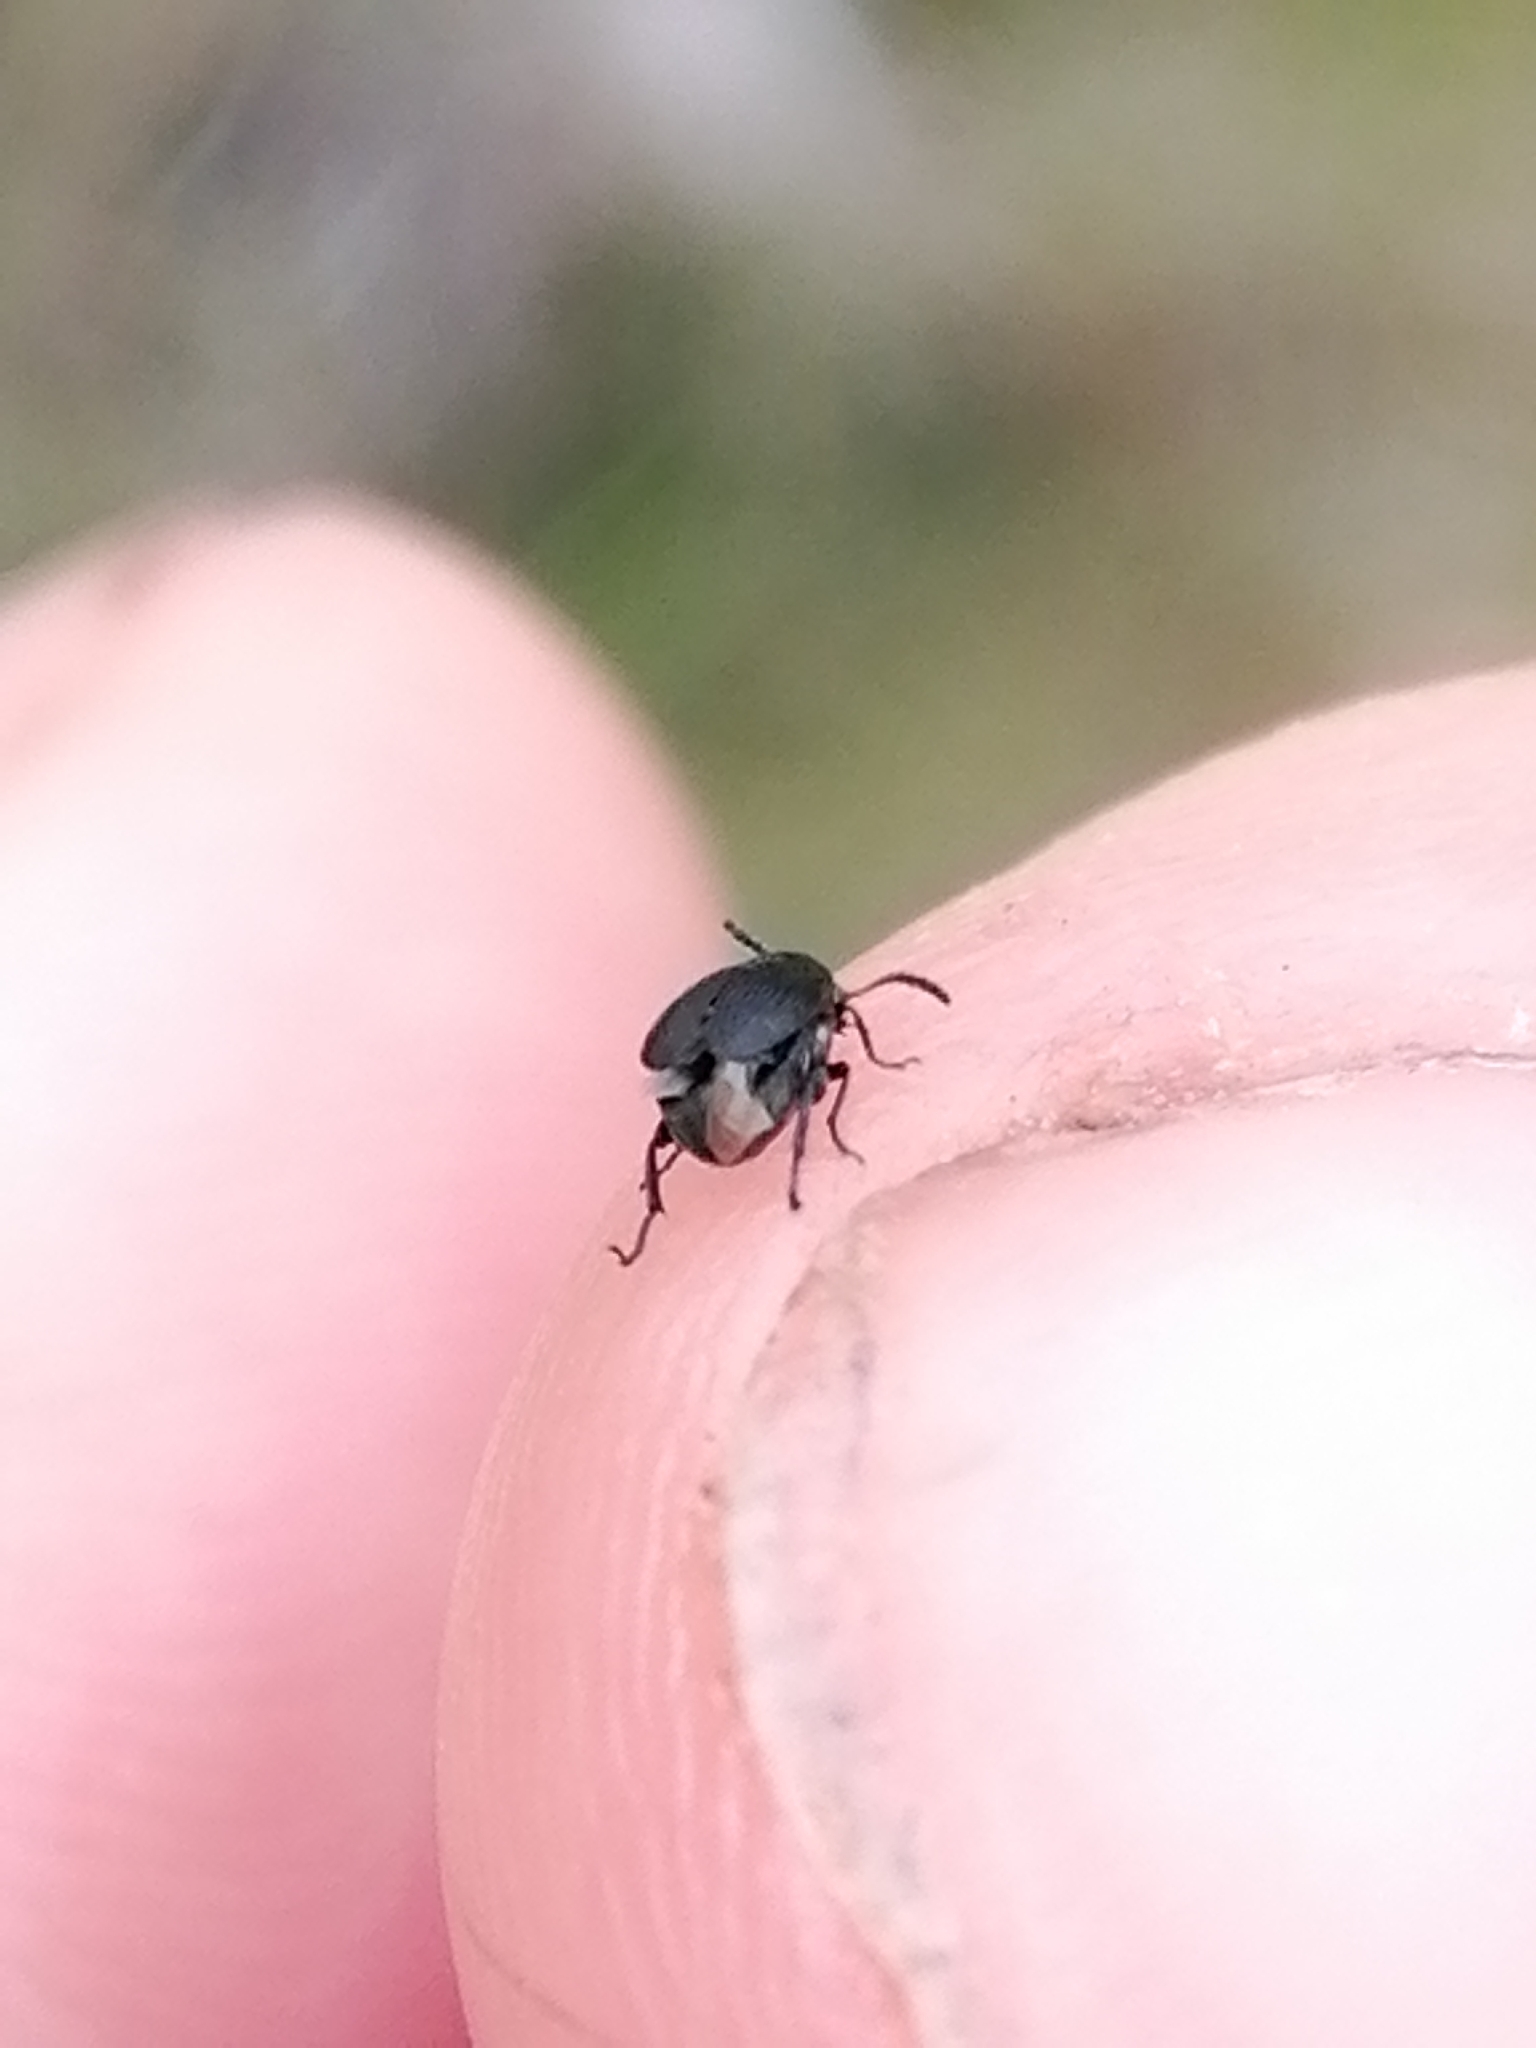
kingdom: Animalia
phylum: Arthropoda
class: Insecta
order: Coleoptera
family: Chrysomelidae
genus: Bruchidius
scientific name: Bruchidius villosus
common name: Scotch broom bruchid
